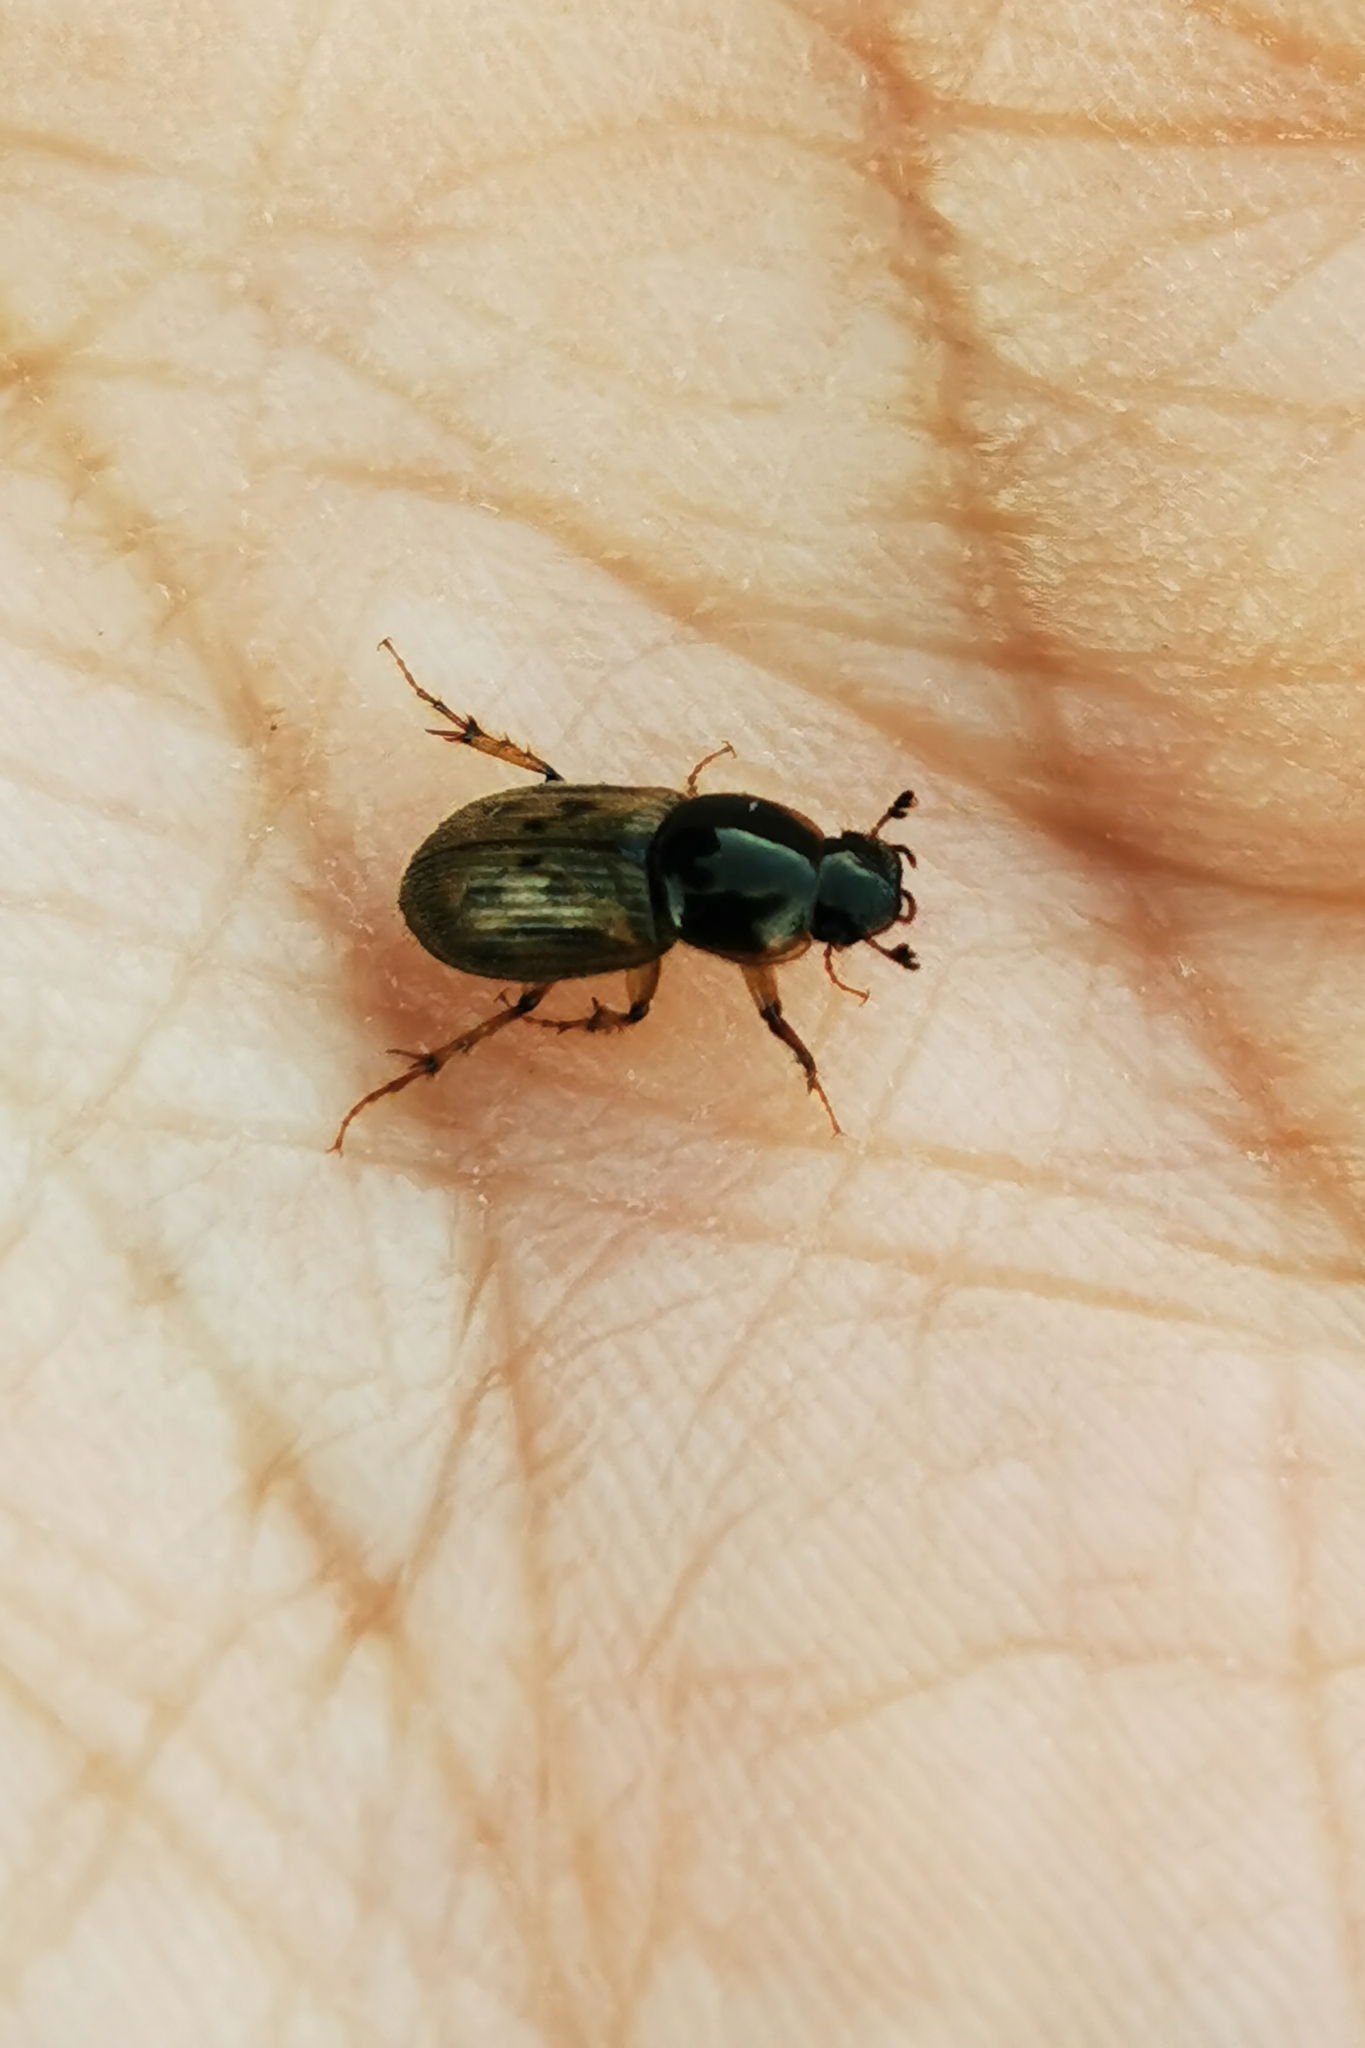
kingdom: Animalia
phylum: Arthropoda
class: Insecta
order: Coleoptera
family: Scarabaeidae
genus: Nimbus
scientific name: Nimbus contaminatus
